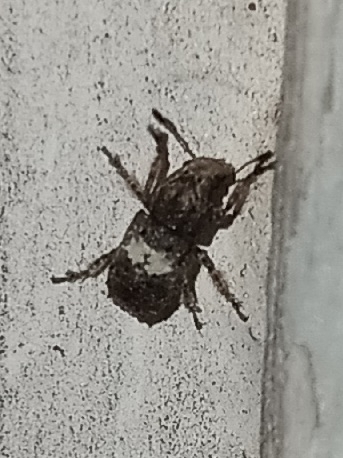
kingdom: Animalia
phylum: Arthropoda
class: Insecta
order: Coleoptera
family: Anthribidae
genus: Toxonotus
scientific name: Toxonotus cornutus
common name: Fungus weevil
